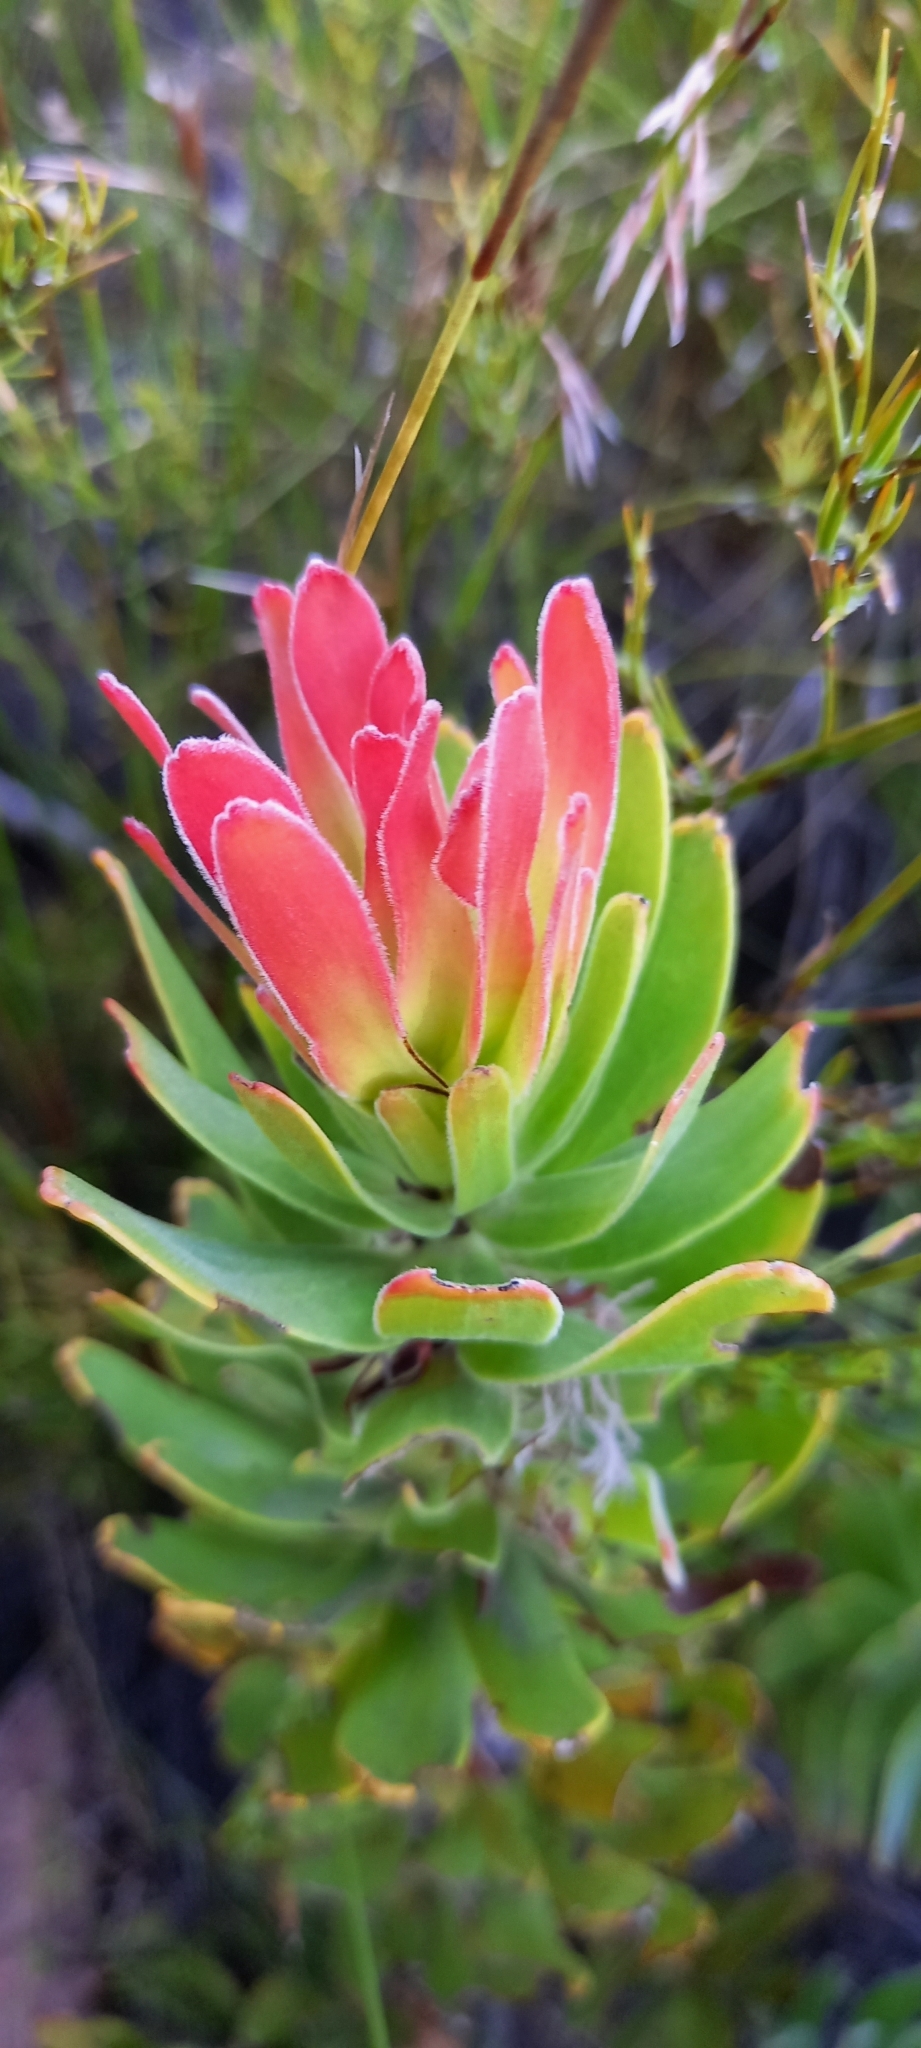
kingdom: Plantae
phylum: Tracheophyta
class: Magnoliopsida
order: Proteales
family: Proteaceae
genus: Mimetes
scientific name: Mimetes cucullatus
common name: Common pagoda
